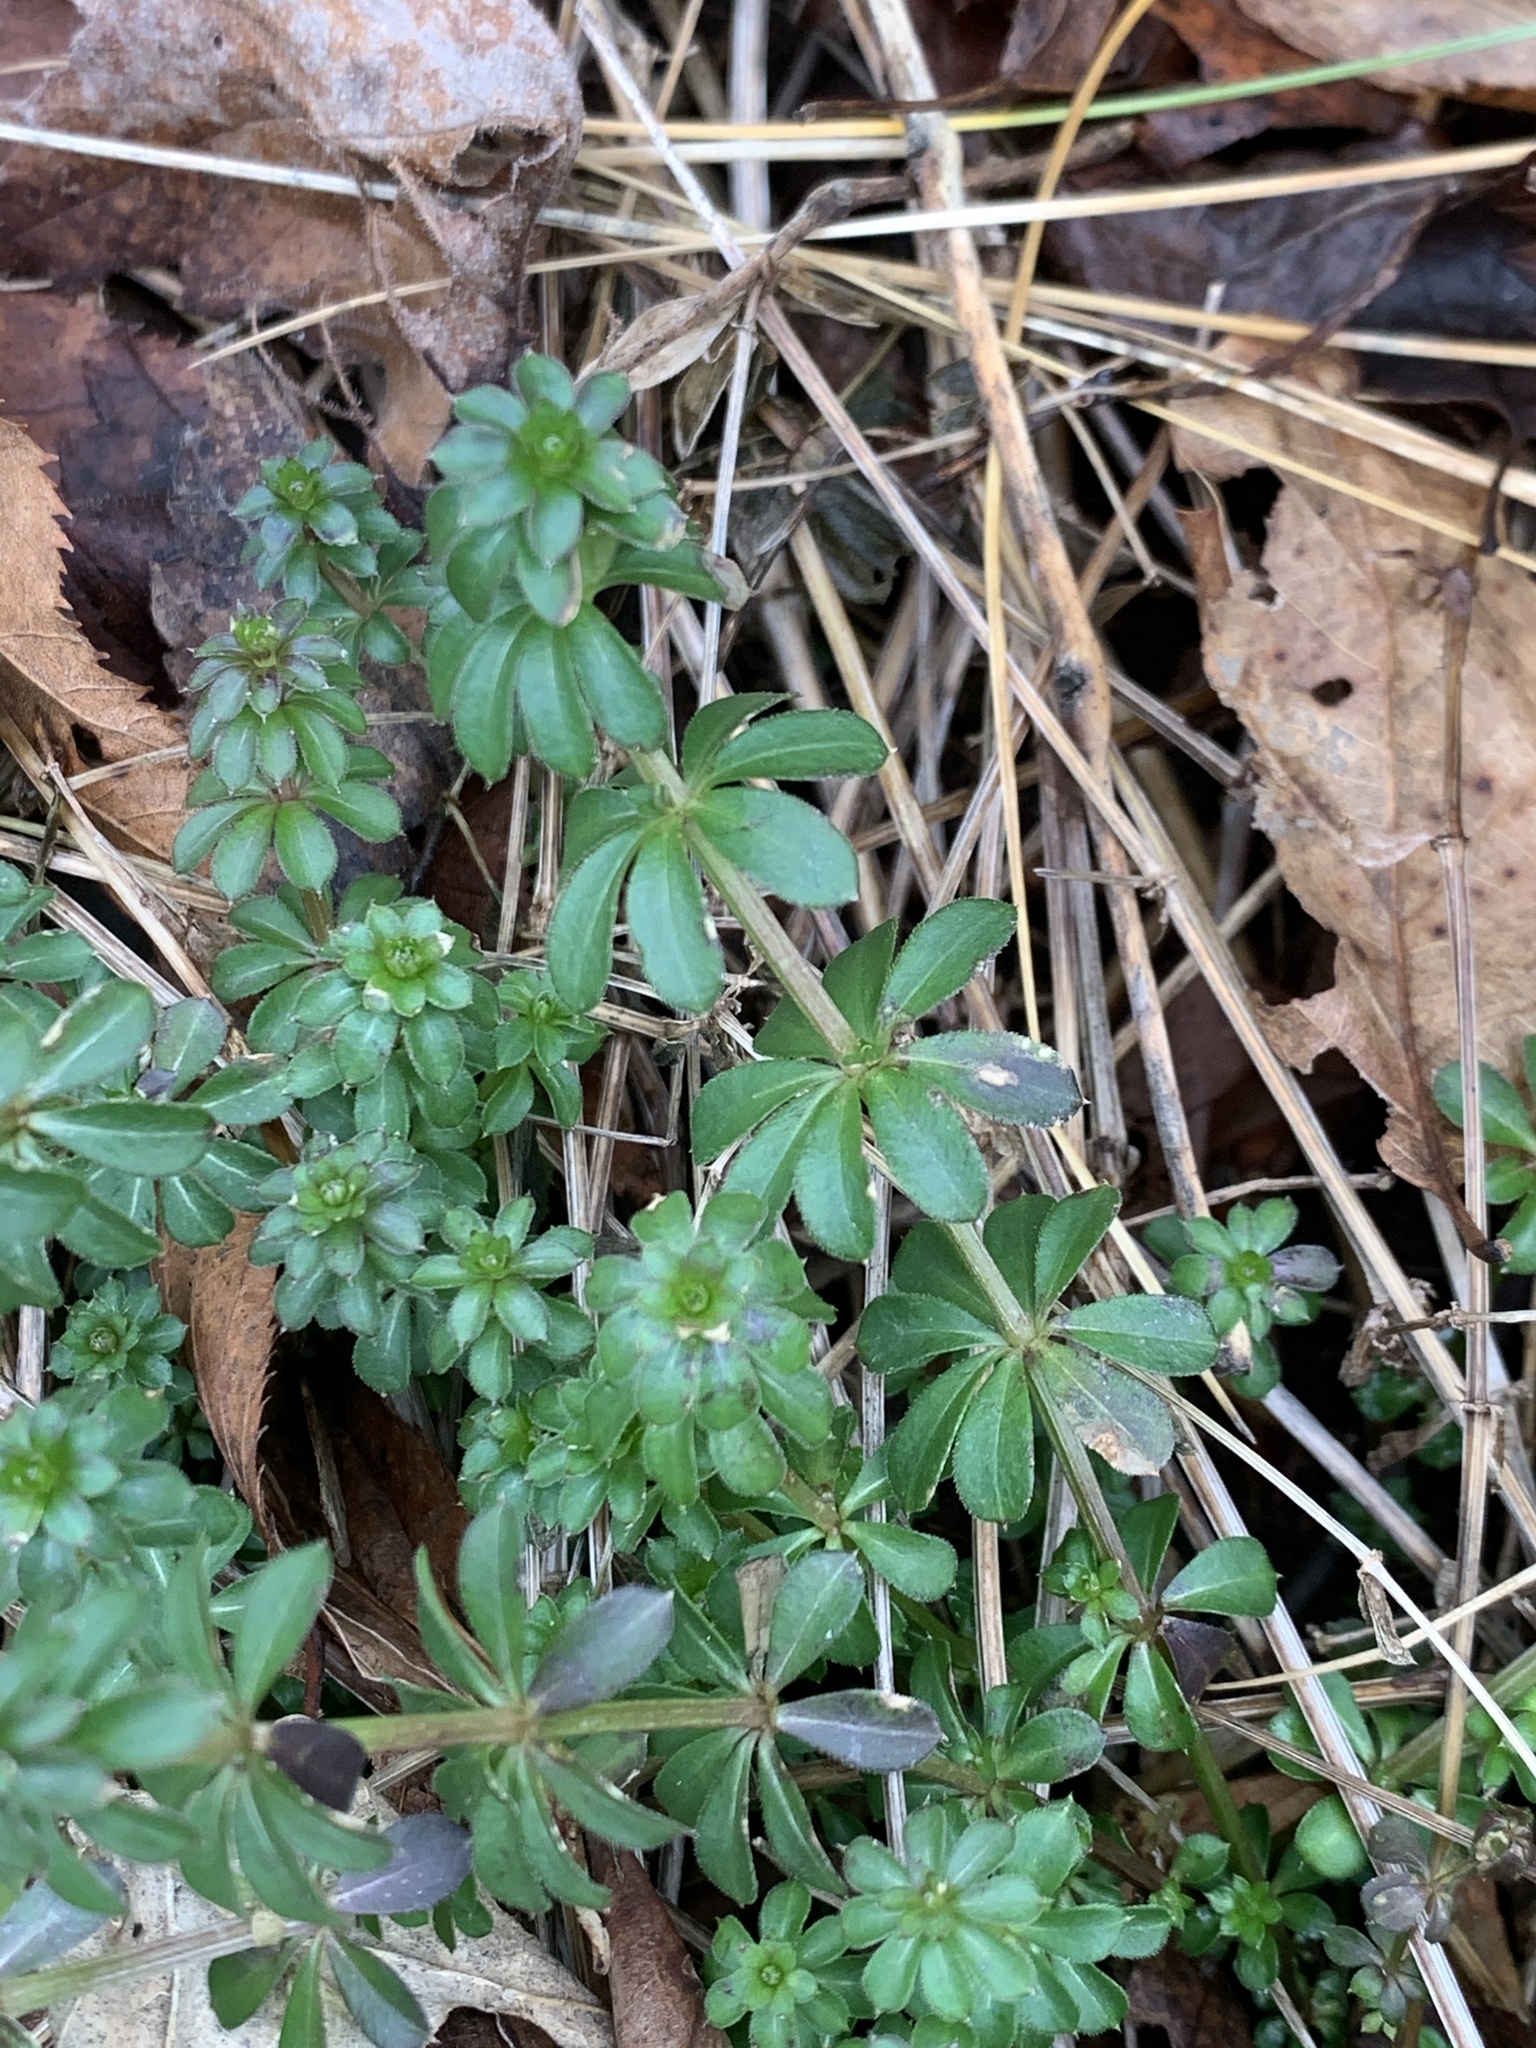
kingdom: Plantae
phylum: Tracheophyta
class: Magnoliopsida
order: Gentianales
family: Rubiaceae
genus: Galium
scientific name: Galium mollugo
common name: Hedge bedstraw
